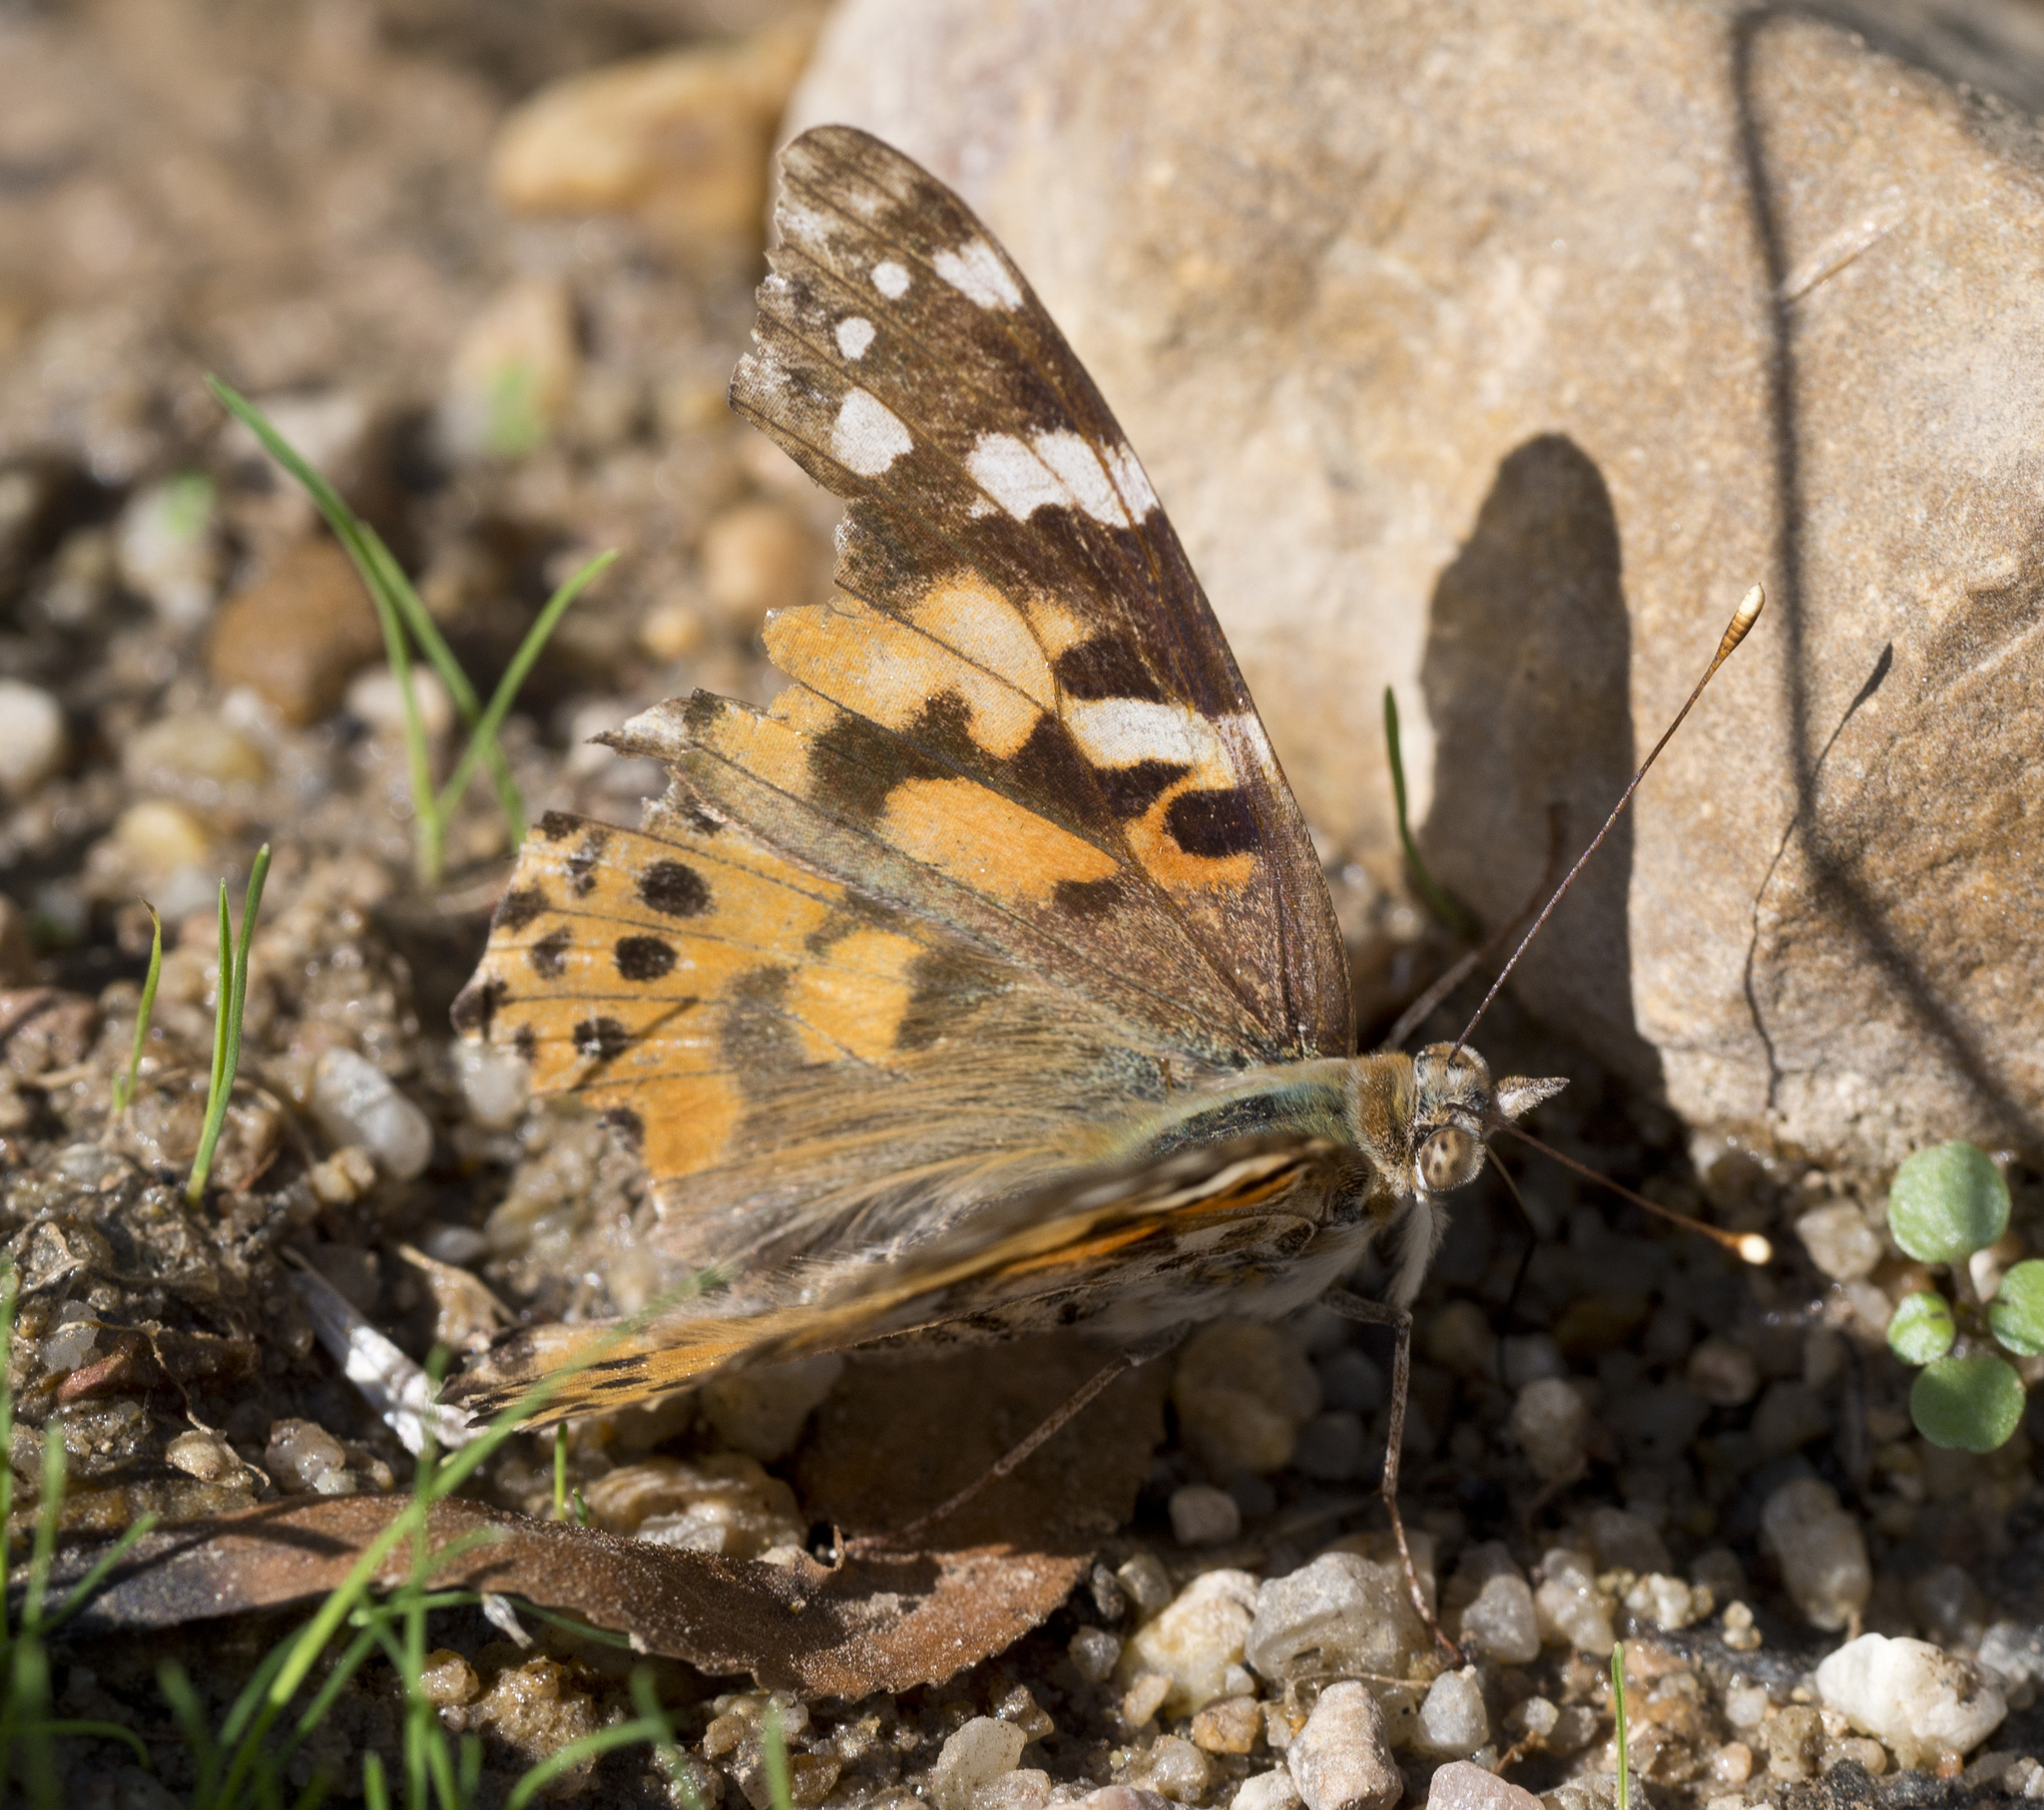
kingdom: Animalia
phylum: Arthropoda
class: Insecta
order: Lepidoptera
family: Nymphalidae
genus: Vanessa
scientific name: Vanessa cardui
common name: Painted lady
